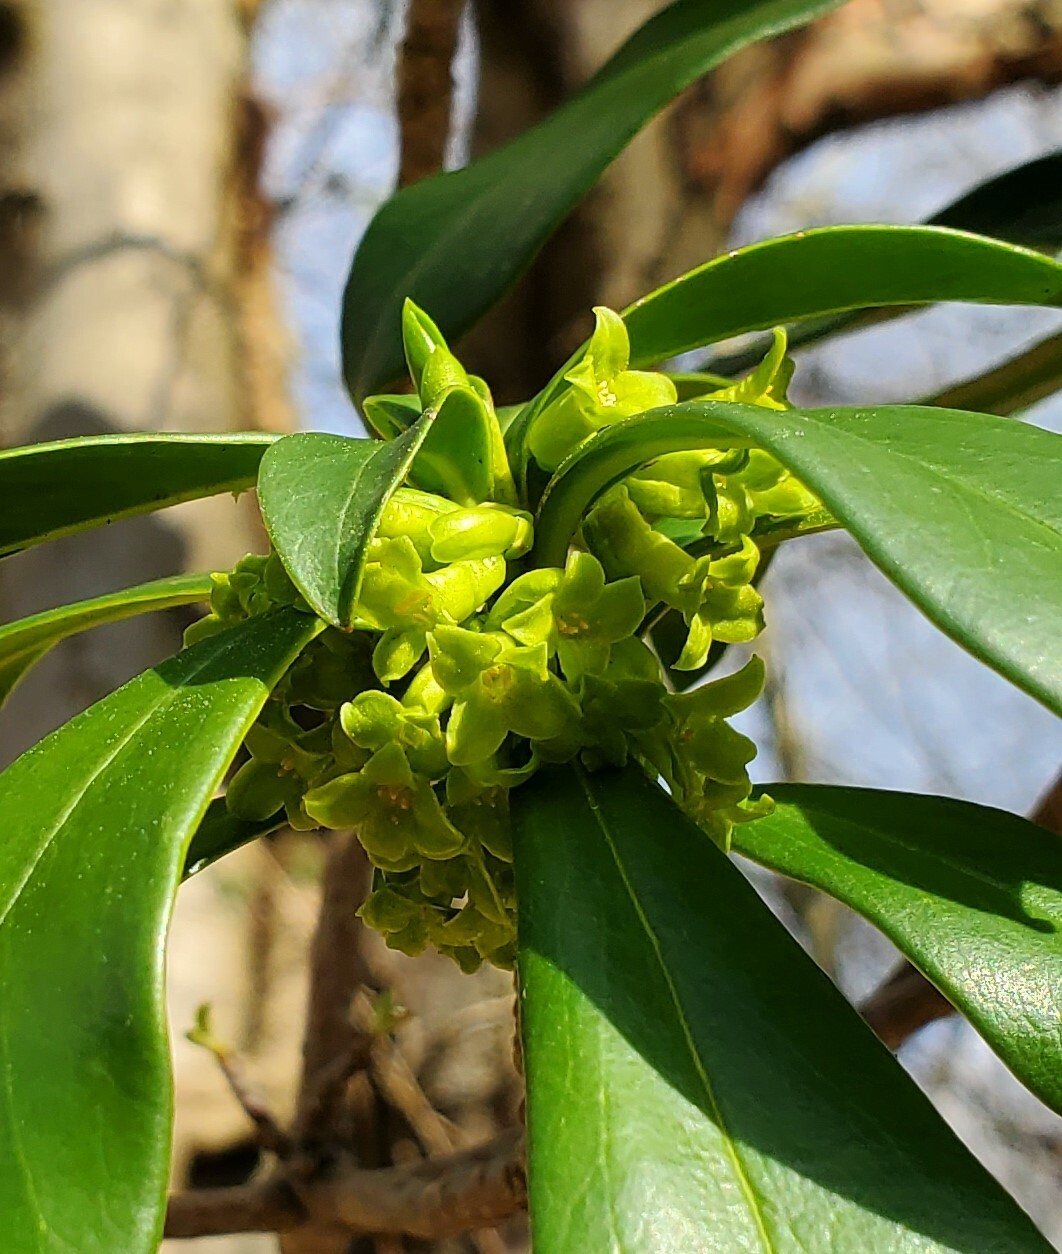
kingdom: Plantae
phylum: Tracheophyta
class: Magnoliopsida
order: Malvales
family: Thymelaeaceae
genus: Daphne
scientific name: Daphne laureola
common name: Spurge-laurel
